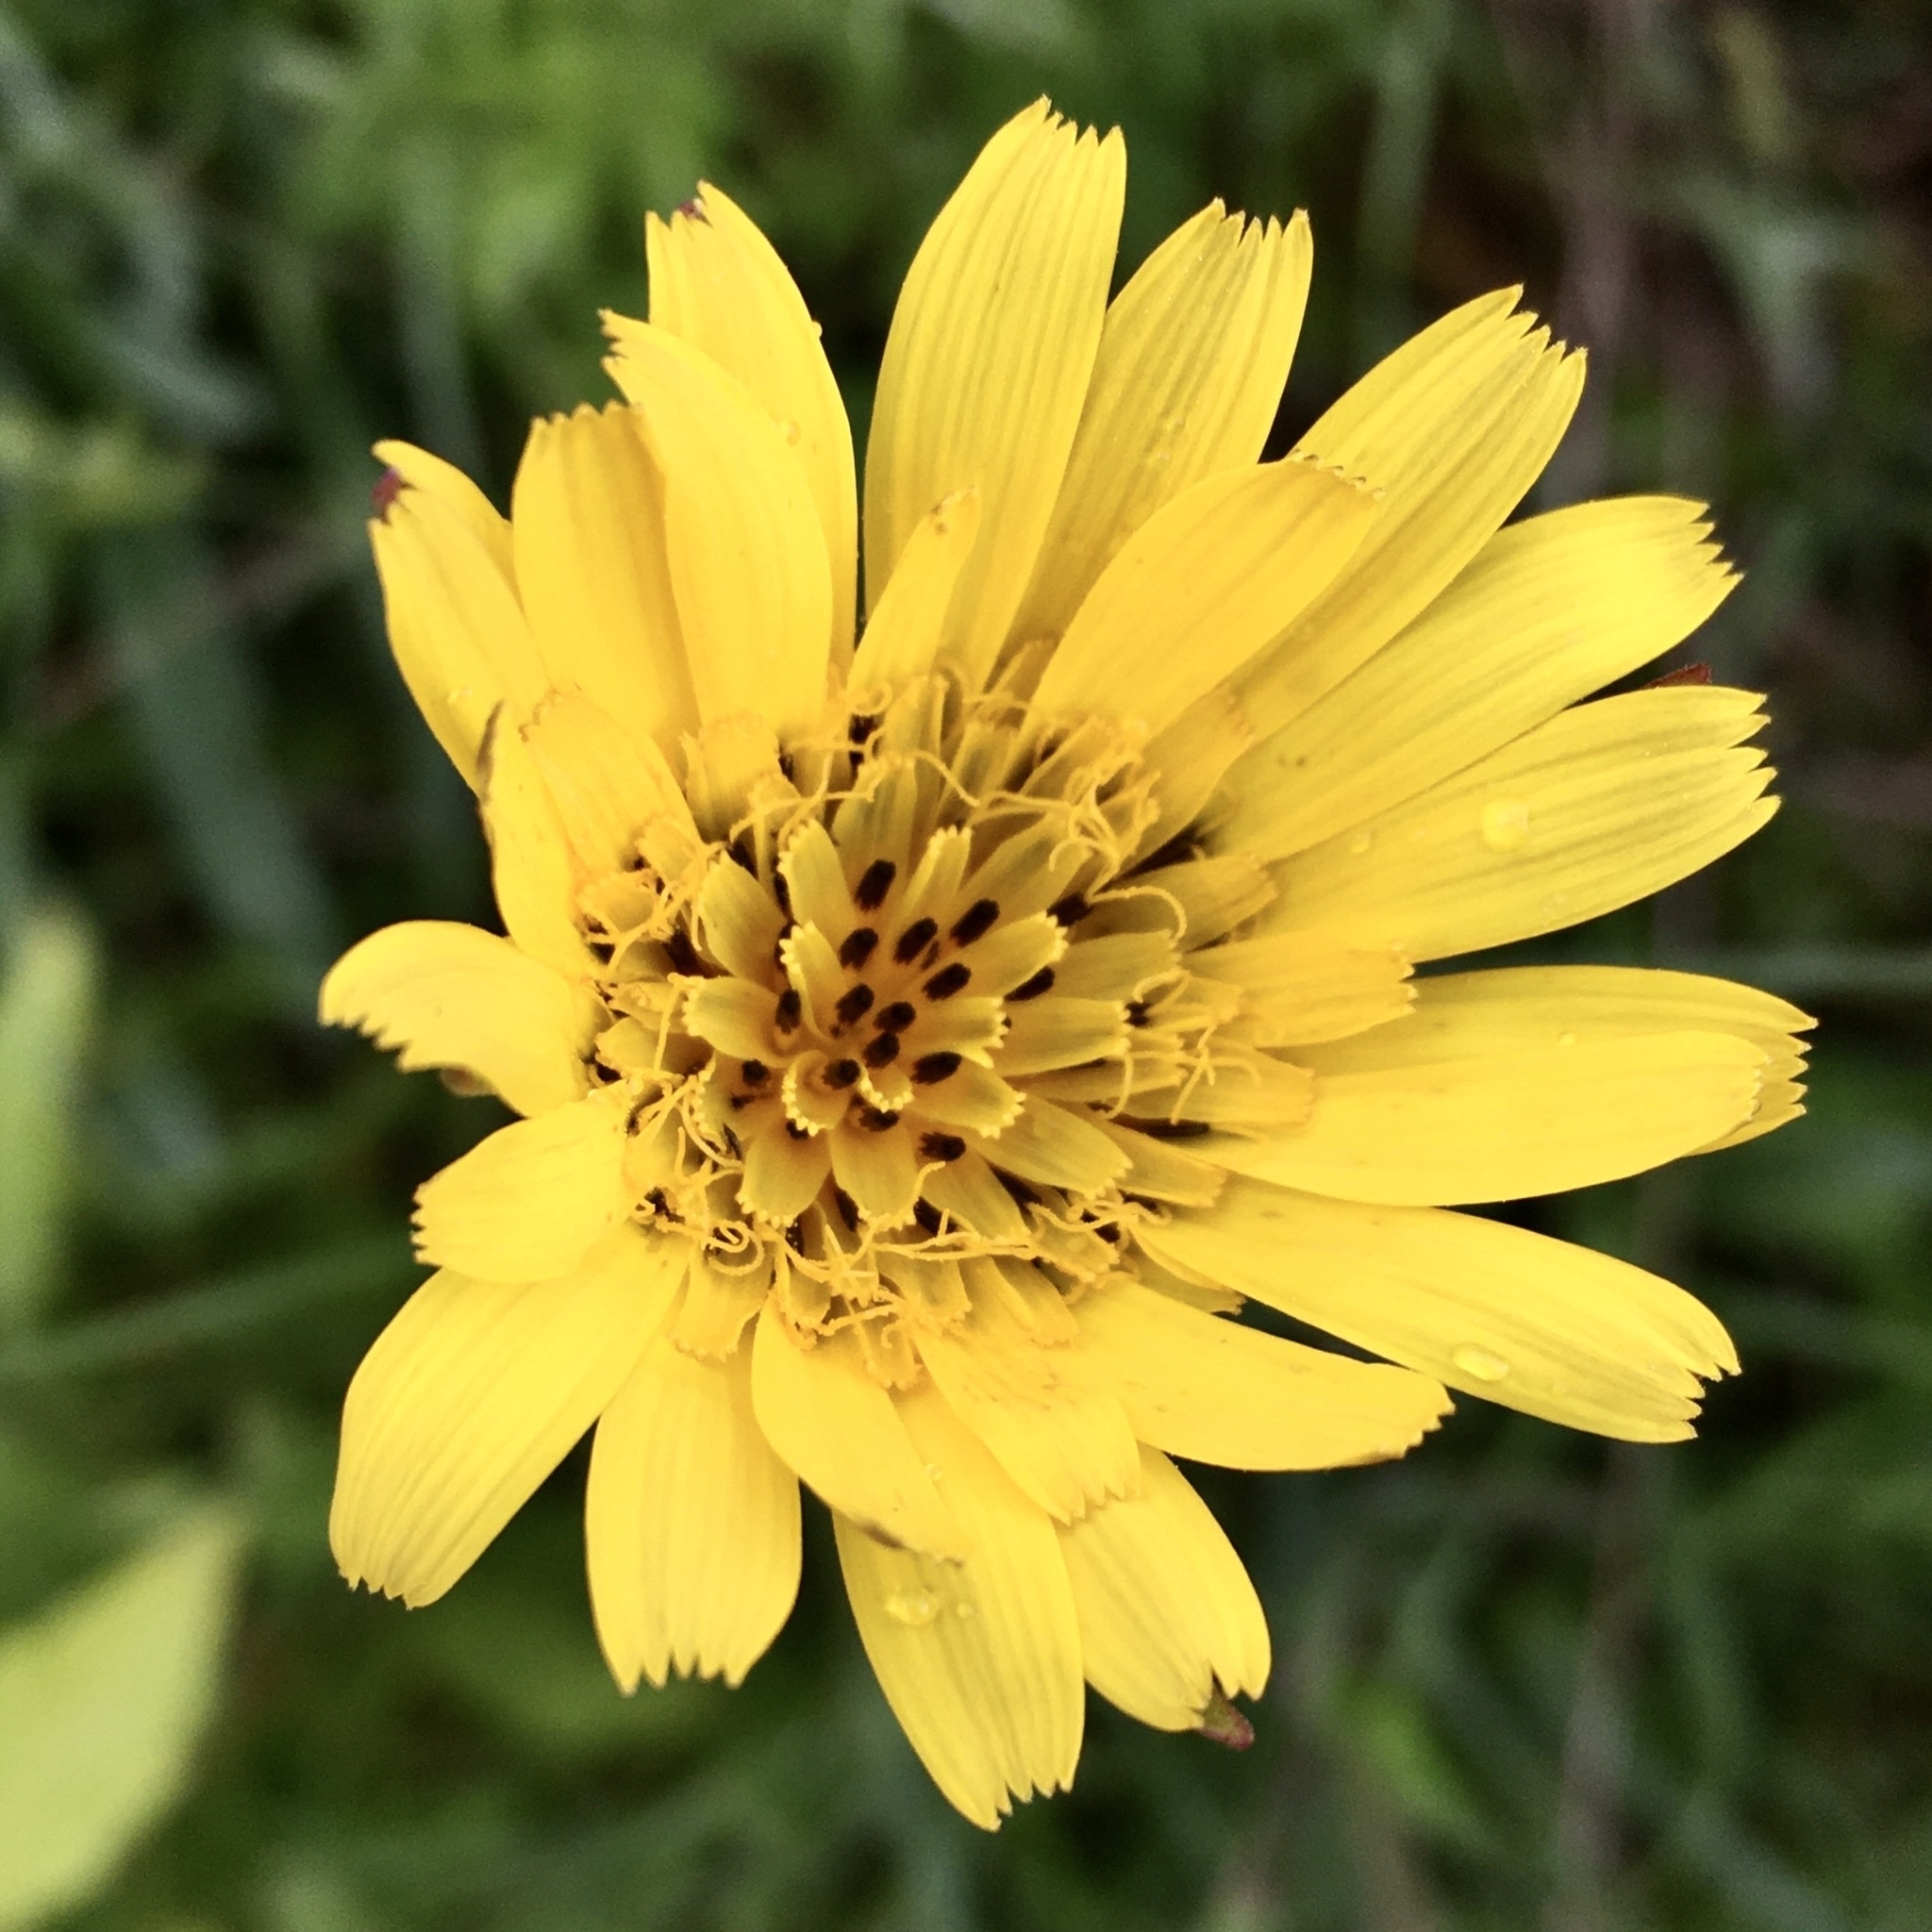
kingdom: Plantae
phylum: Tracheophyta
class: Magnoliopsida
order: Asterales
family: Asteraceae
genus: Tragopogon
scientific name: Tragopogon orientalis
